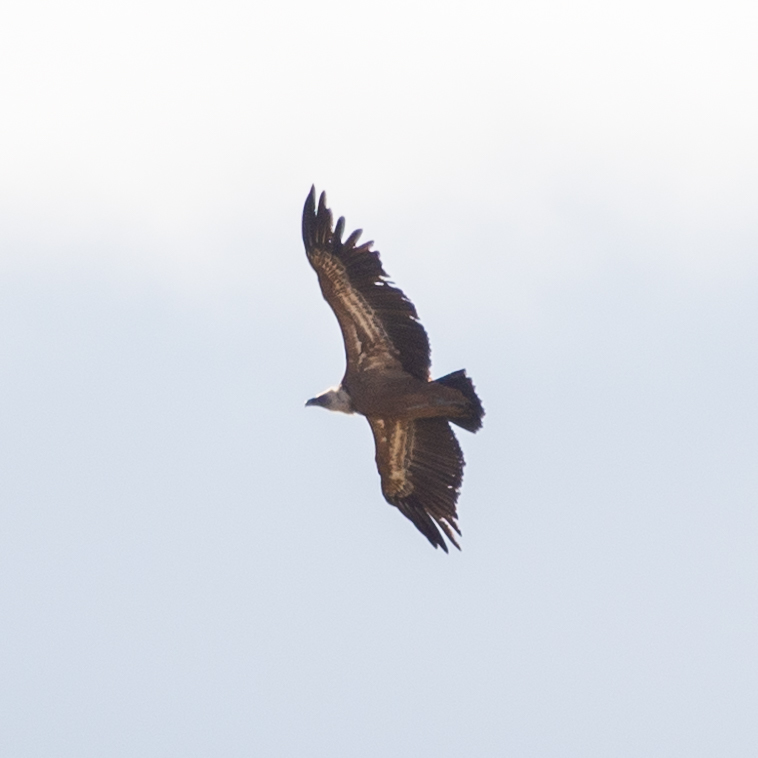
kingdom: Animalia
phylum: Chordata
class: Aves
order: Accipitriformes
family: Accipitridae
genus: Gyps
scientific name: Gyps fulvus
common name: Griffon vulture
